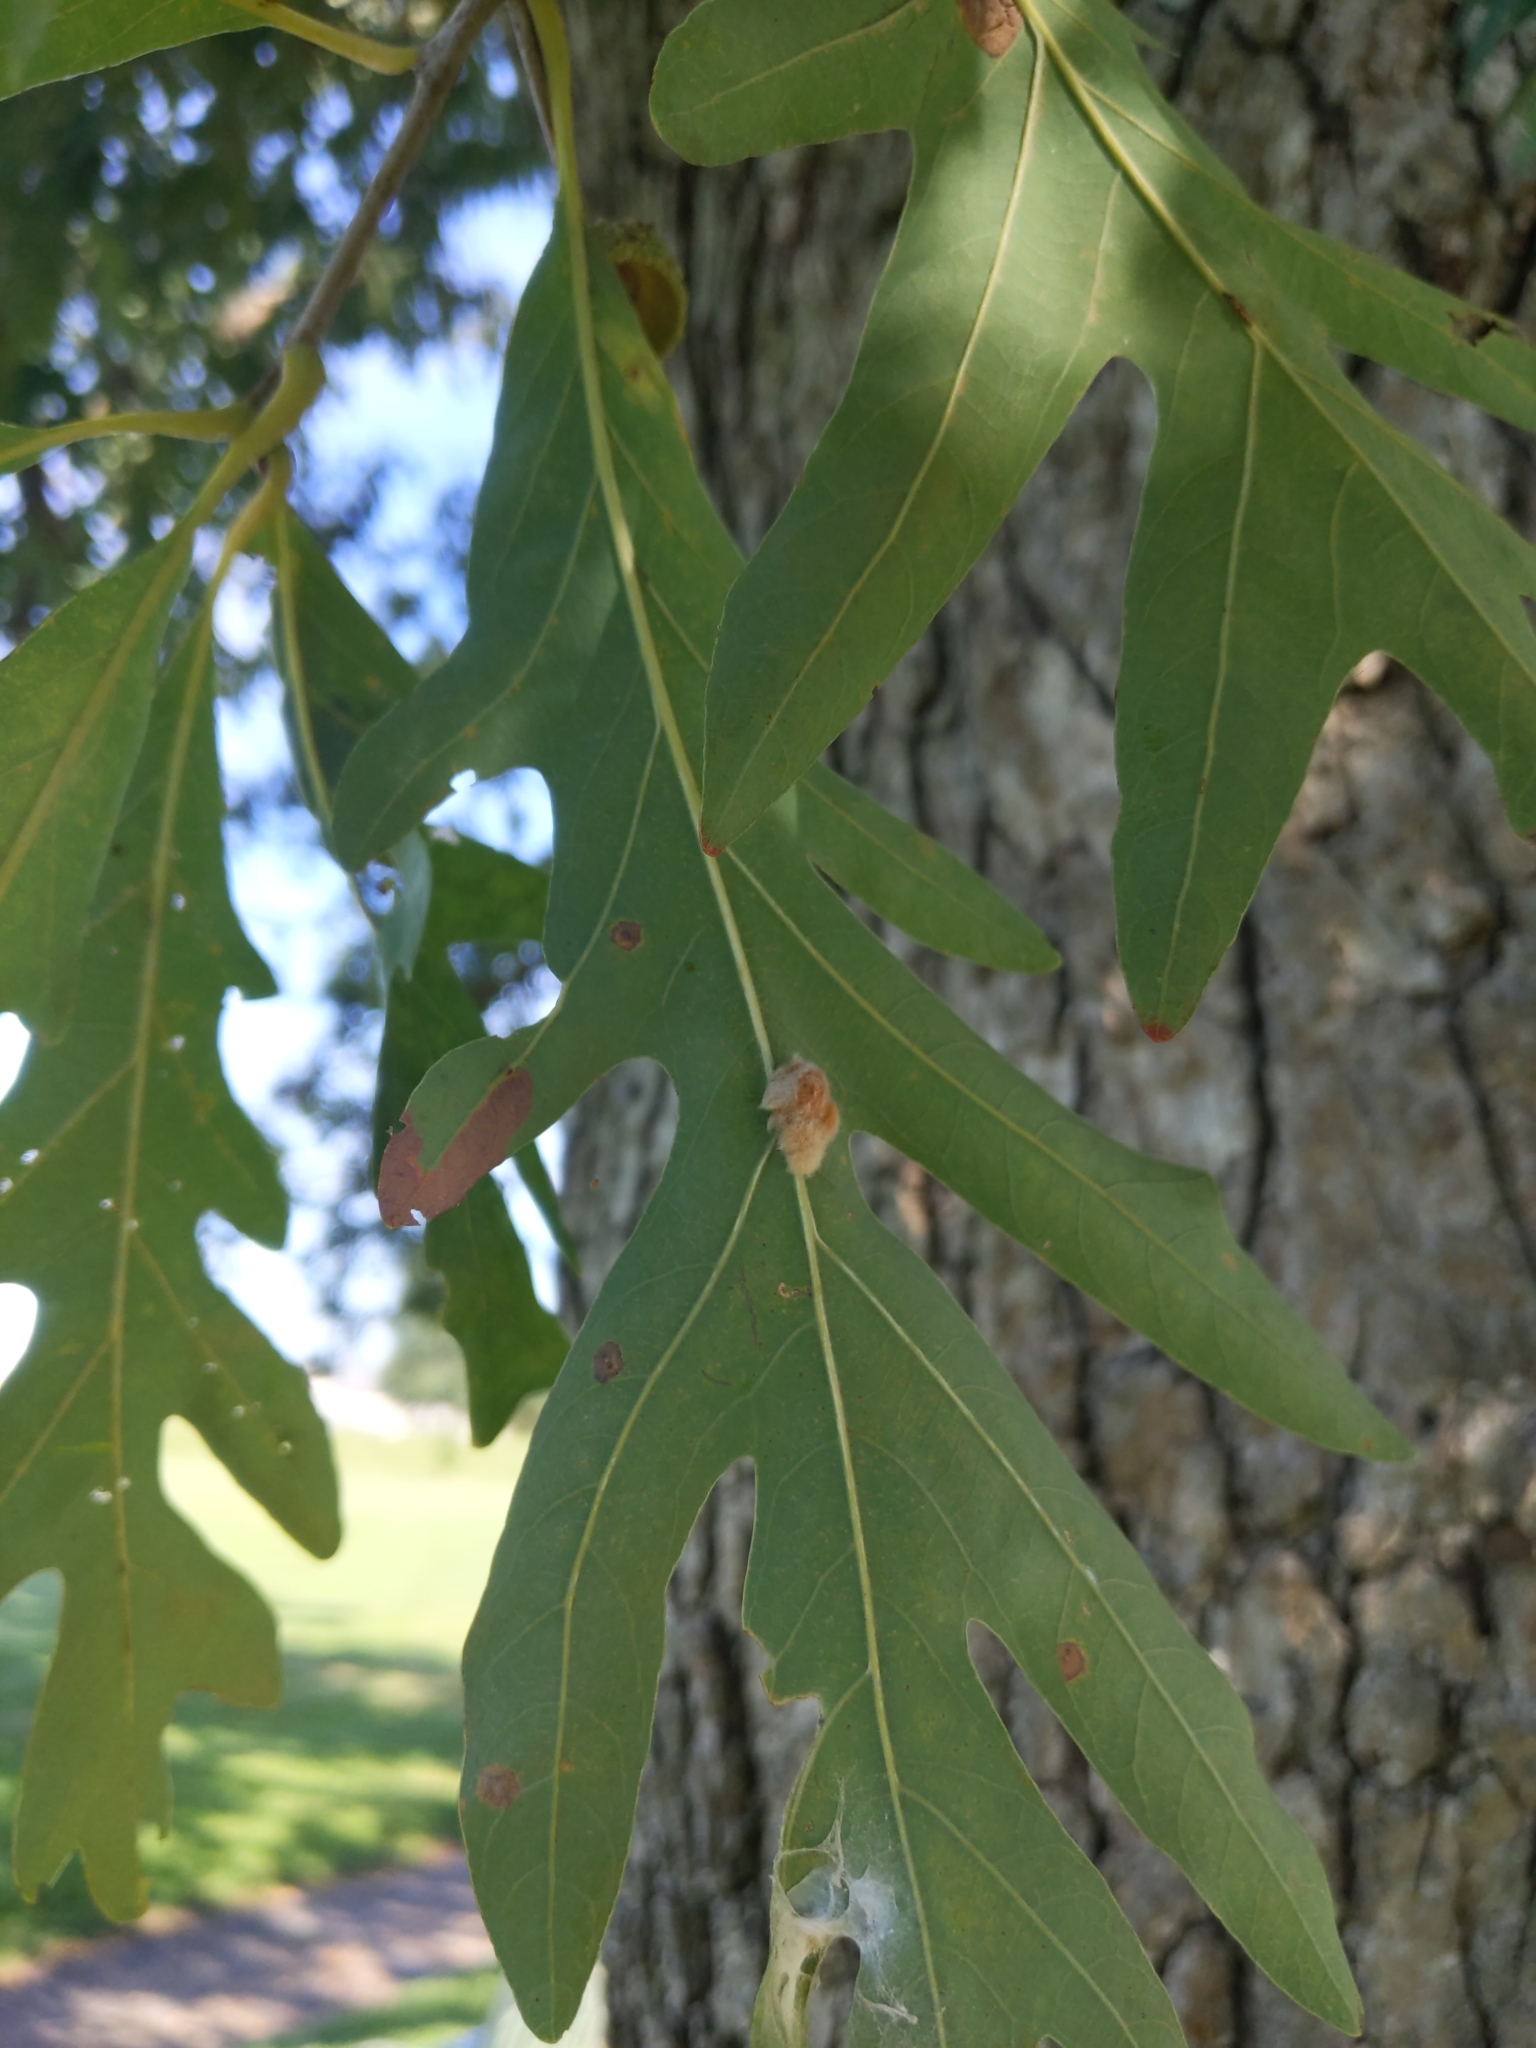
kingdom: Animalia
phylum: Arthropoda
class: Insecta
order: Hymenoptera
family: Cynipidae
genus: Andricus
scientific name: Andricus quercusflocci
